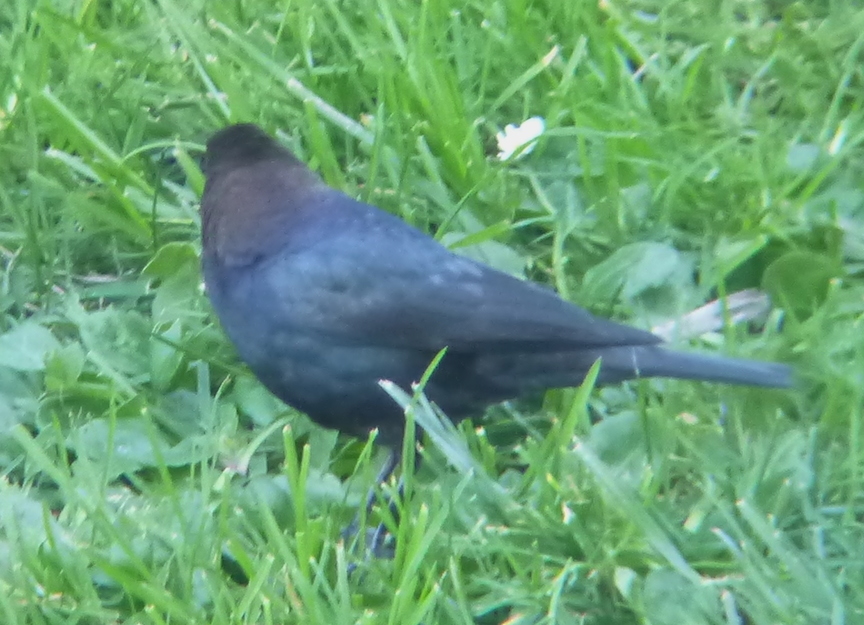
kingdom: Animalia
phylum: Chordata
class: Aves
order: Passeriformes
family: Icteridae
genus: Molothrus
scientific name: Molothrus ater
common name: Brown-headed cowbird
